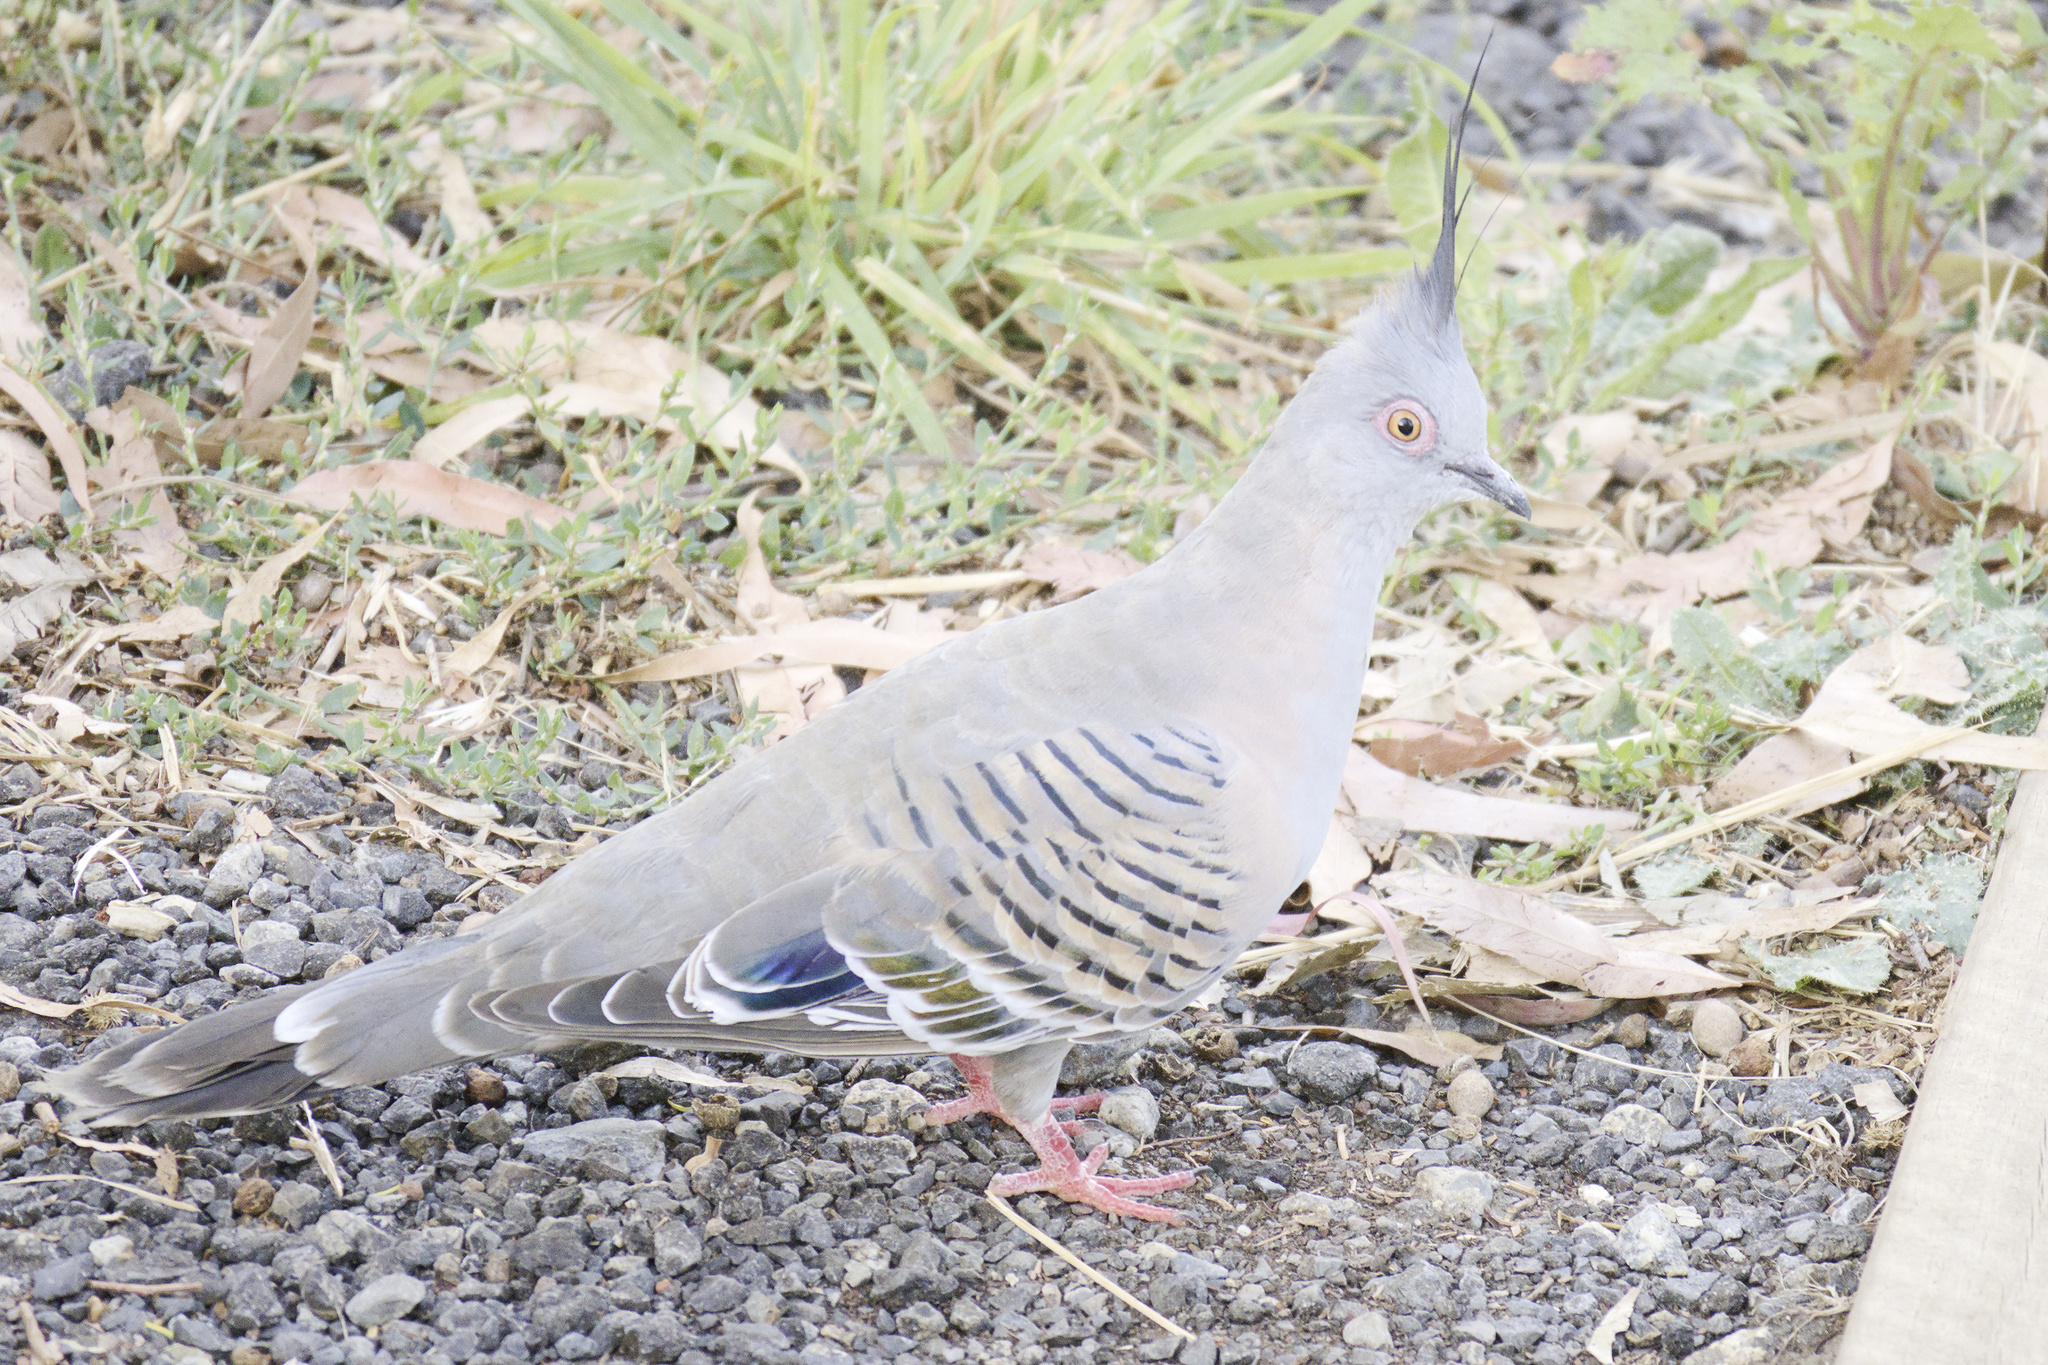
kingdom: Animalia
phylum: Chordata
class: Aves
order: Columbiformes
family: Columbidae
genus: Ocyphaps
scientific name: Ocyphaps lophotes
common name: Crested pigeon
